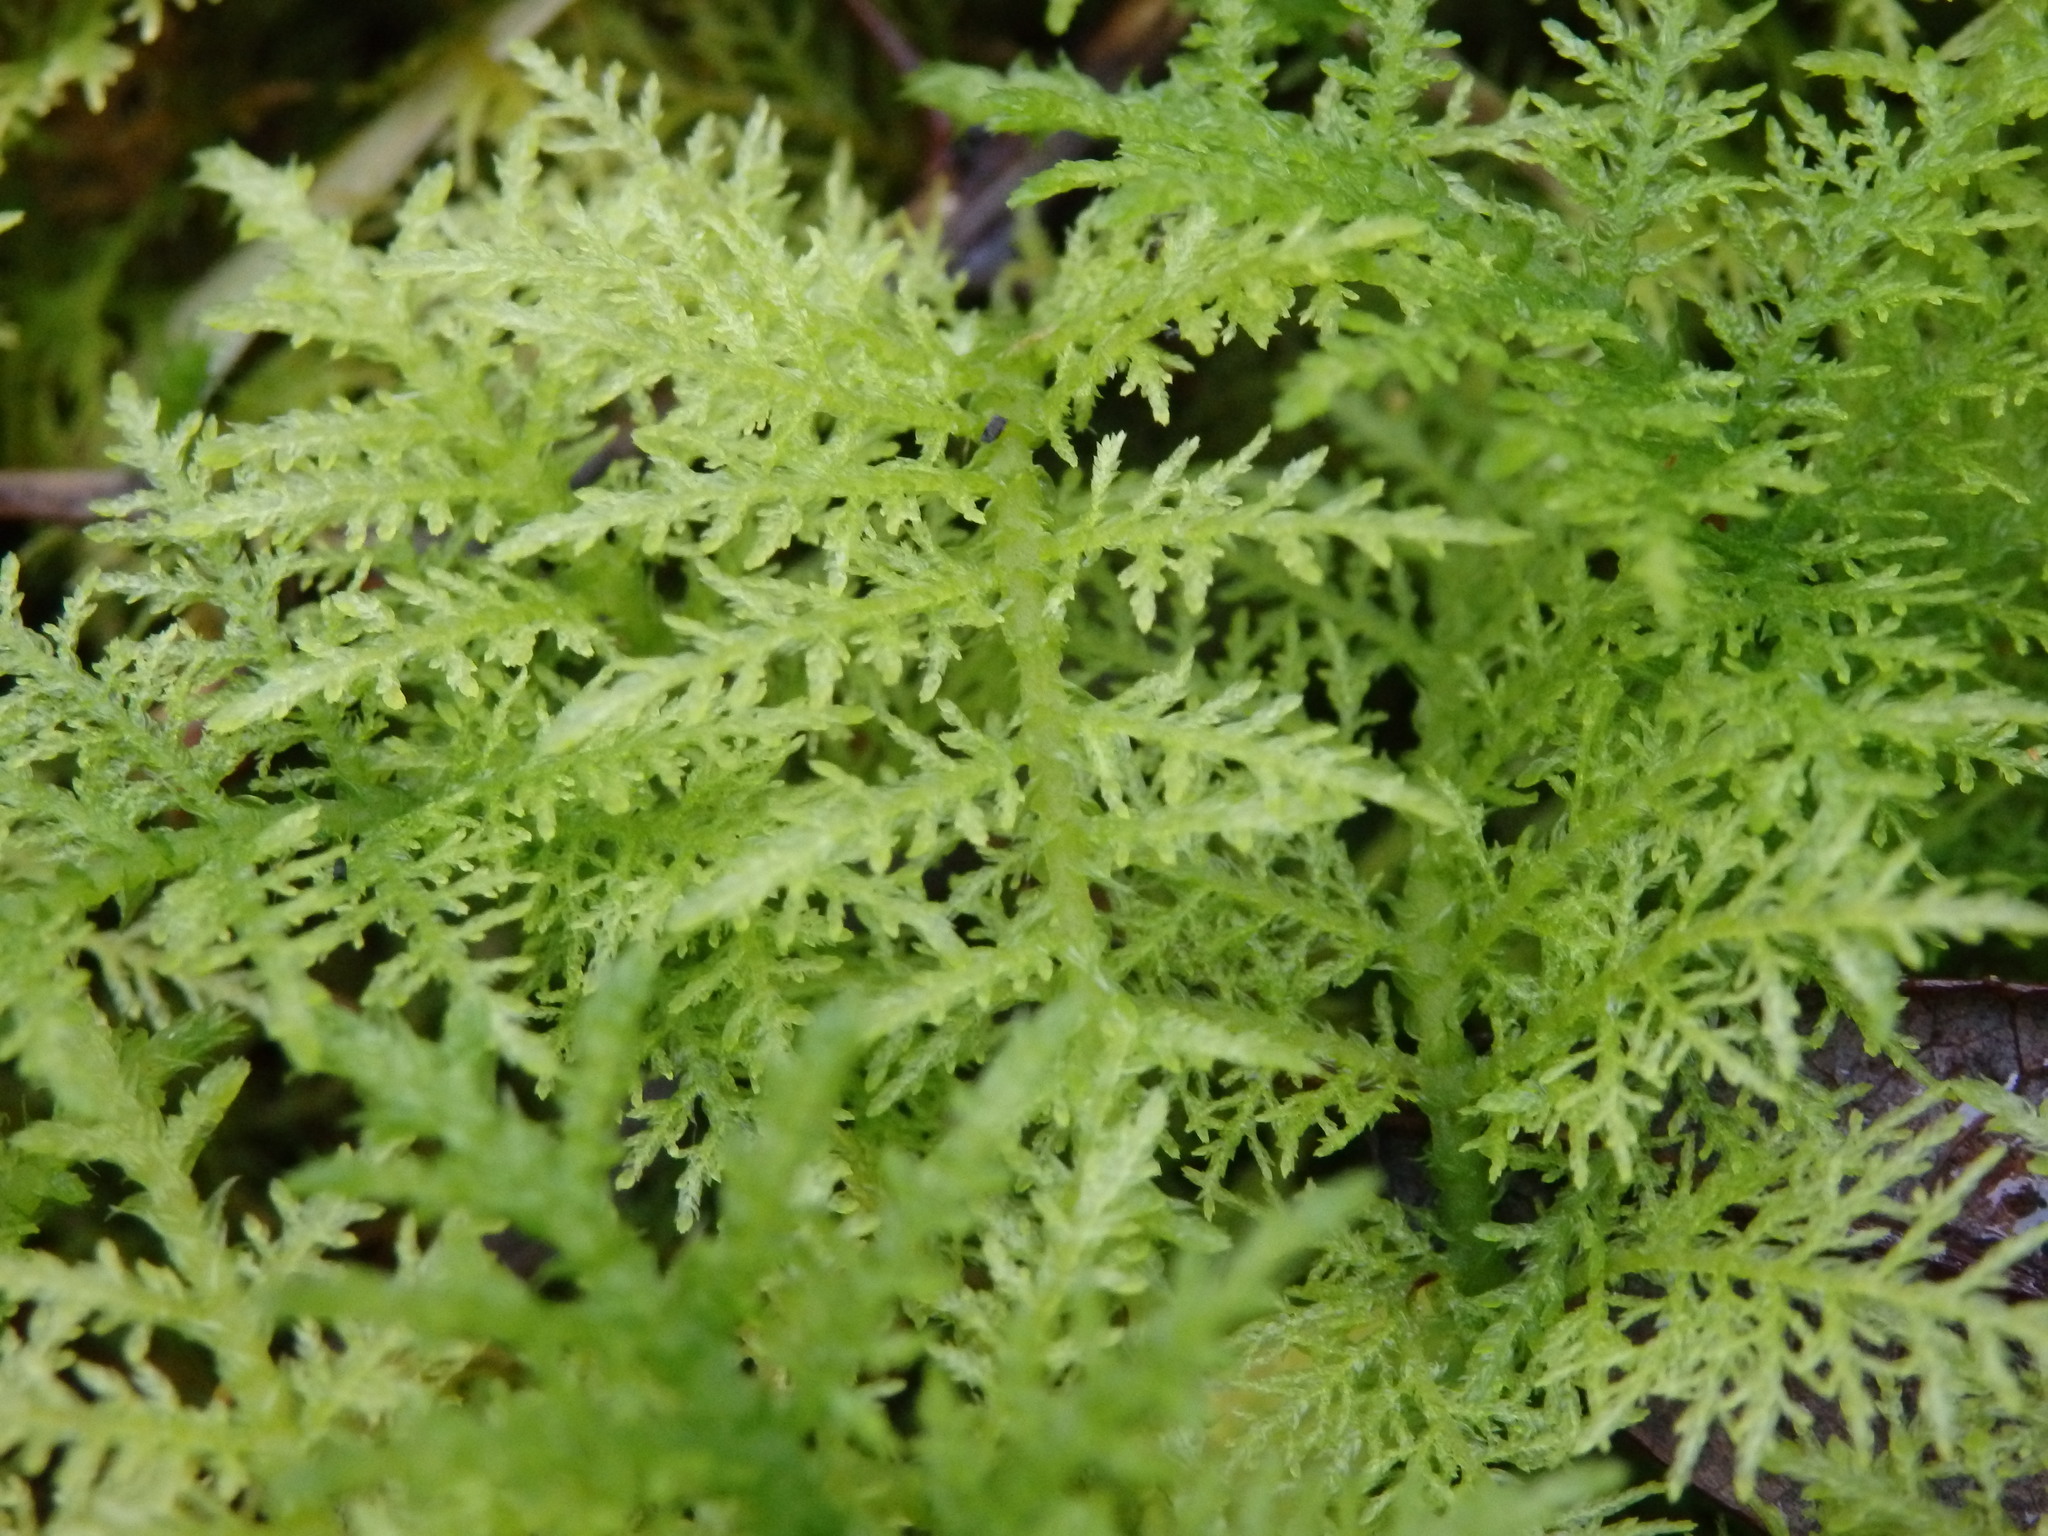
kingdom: Plantae
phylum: Bryophyta
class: Bryopsida
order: Hypnales
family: Thuidiaceae
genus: Thuidium
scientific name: Thuidium tamariscinum
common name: Common tamarisk-moss
